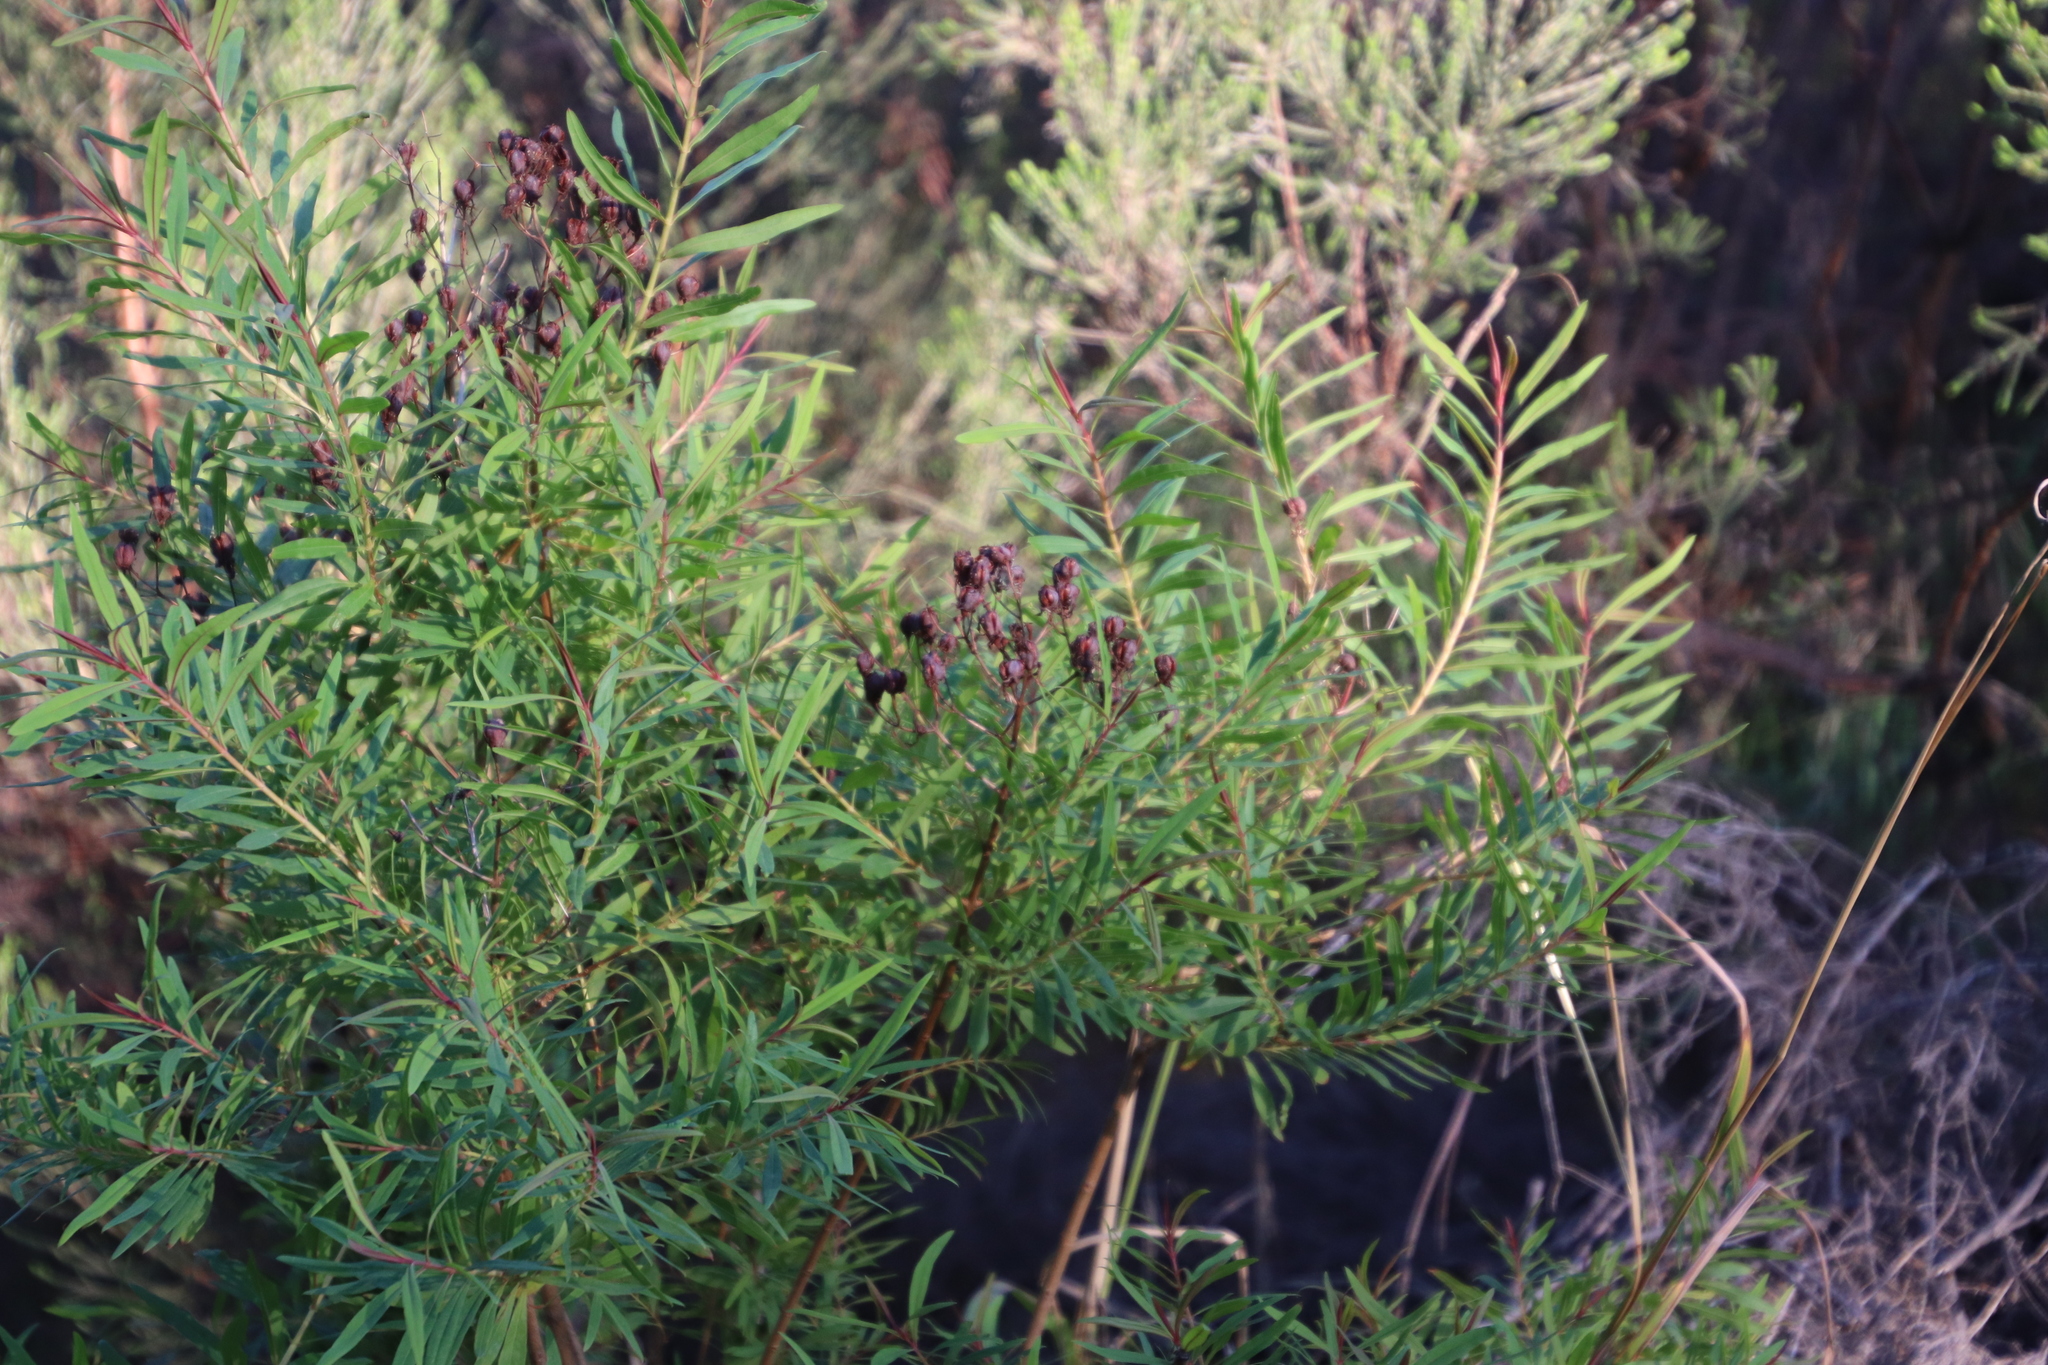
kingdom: Plantae
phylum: Tracheophyta
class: Magnoliopsida
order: Malpighiales
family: Hypericaceae
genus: Hypericum
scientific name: Hypericum canariense
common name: Canary island st. johnswort
